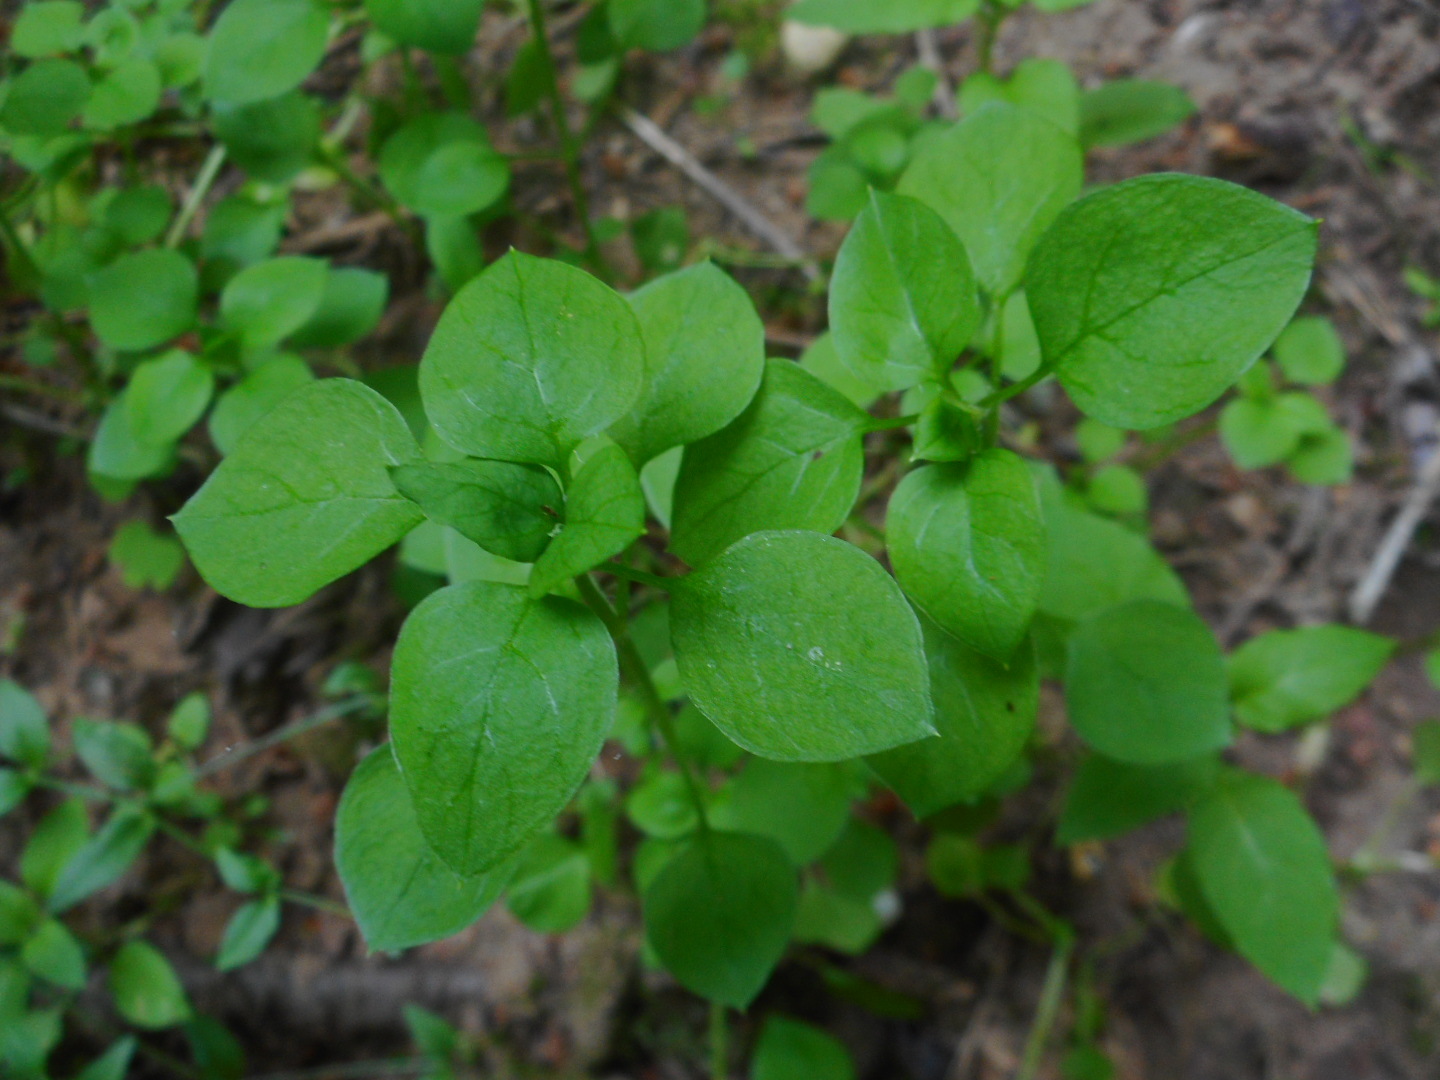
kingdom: Plantae
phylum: Tracheophyta
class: Magnoliopsida
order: Caryophyllales
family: Caryophyllaceae
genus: Stellaria
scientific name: Stellaria media
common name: Common chickweed
